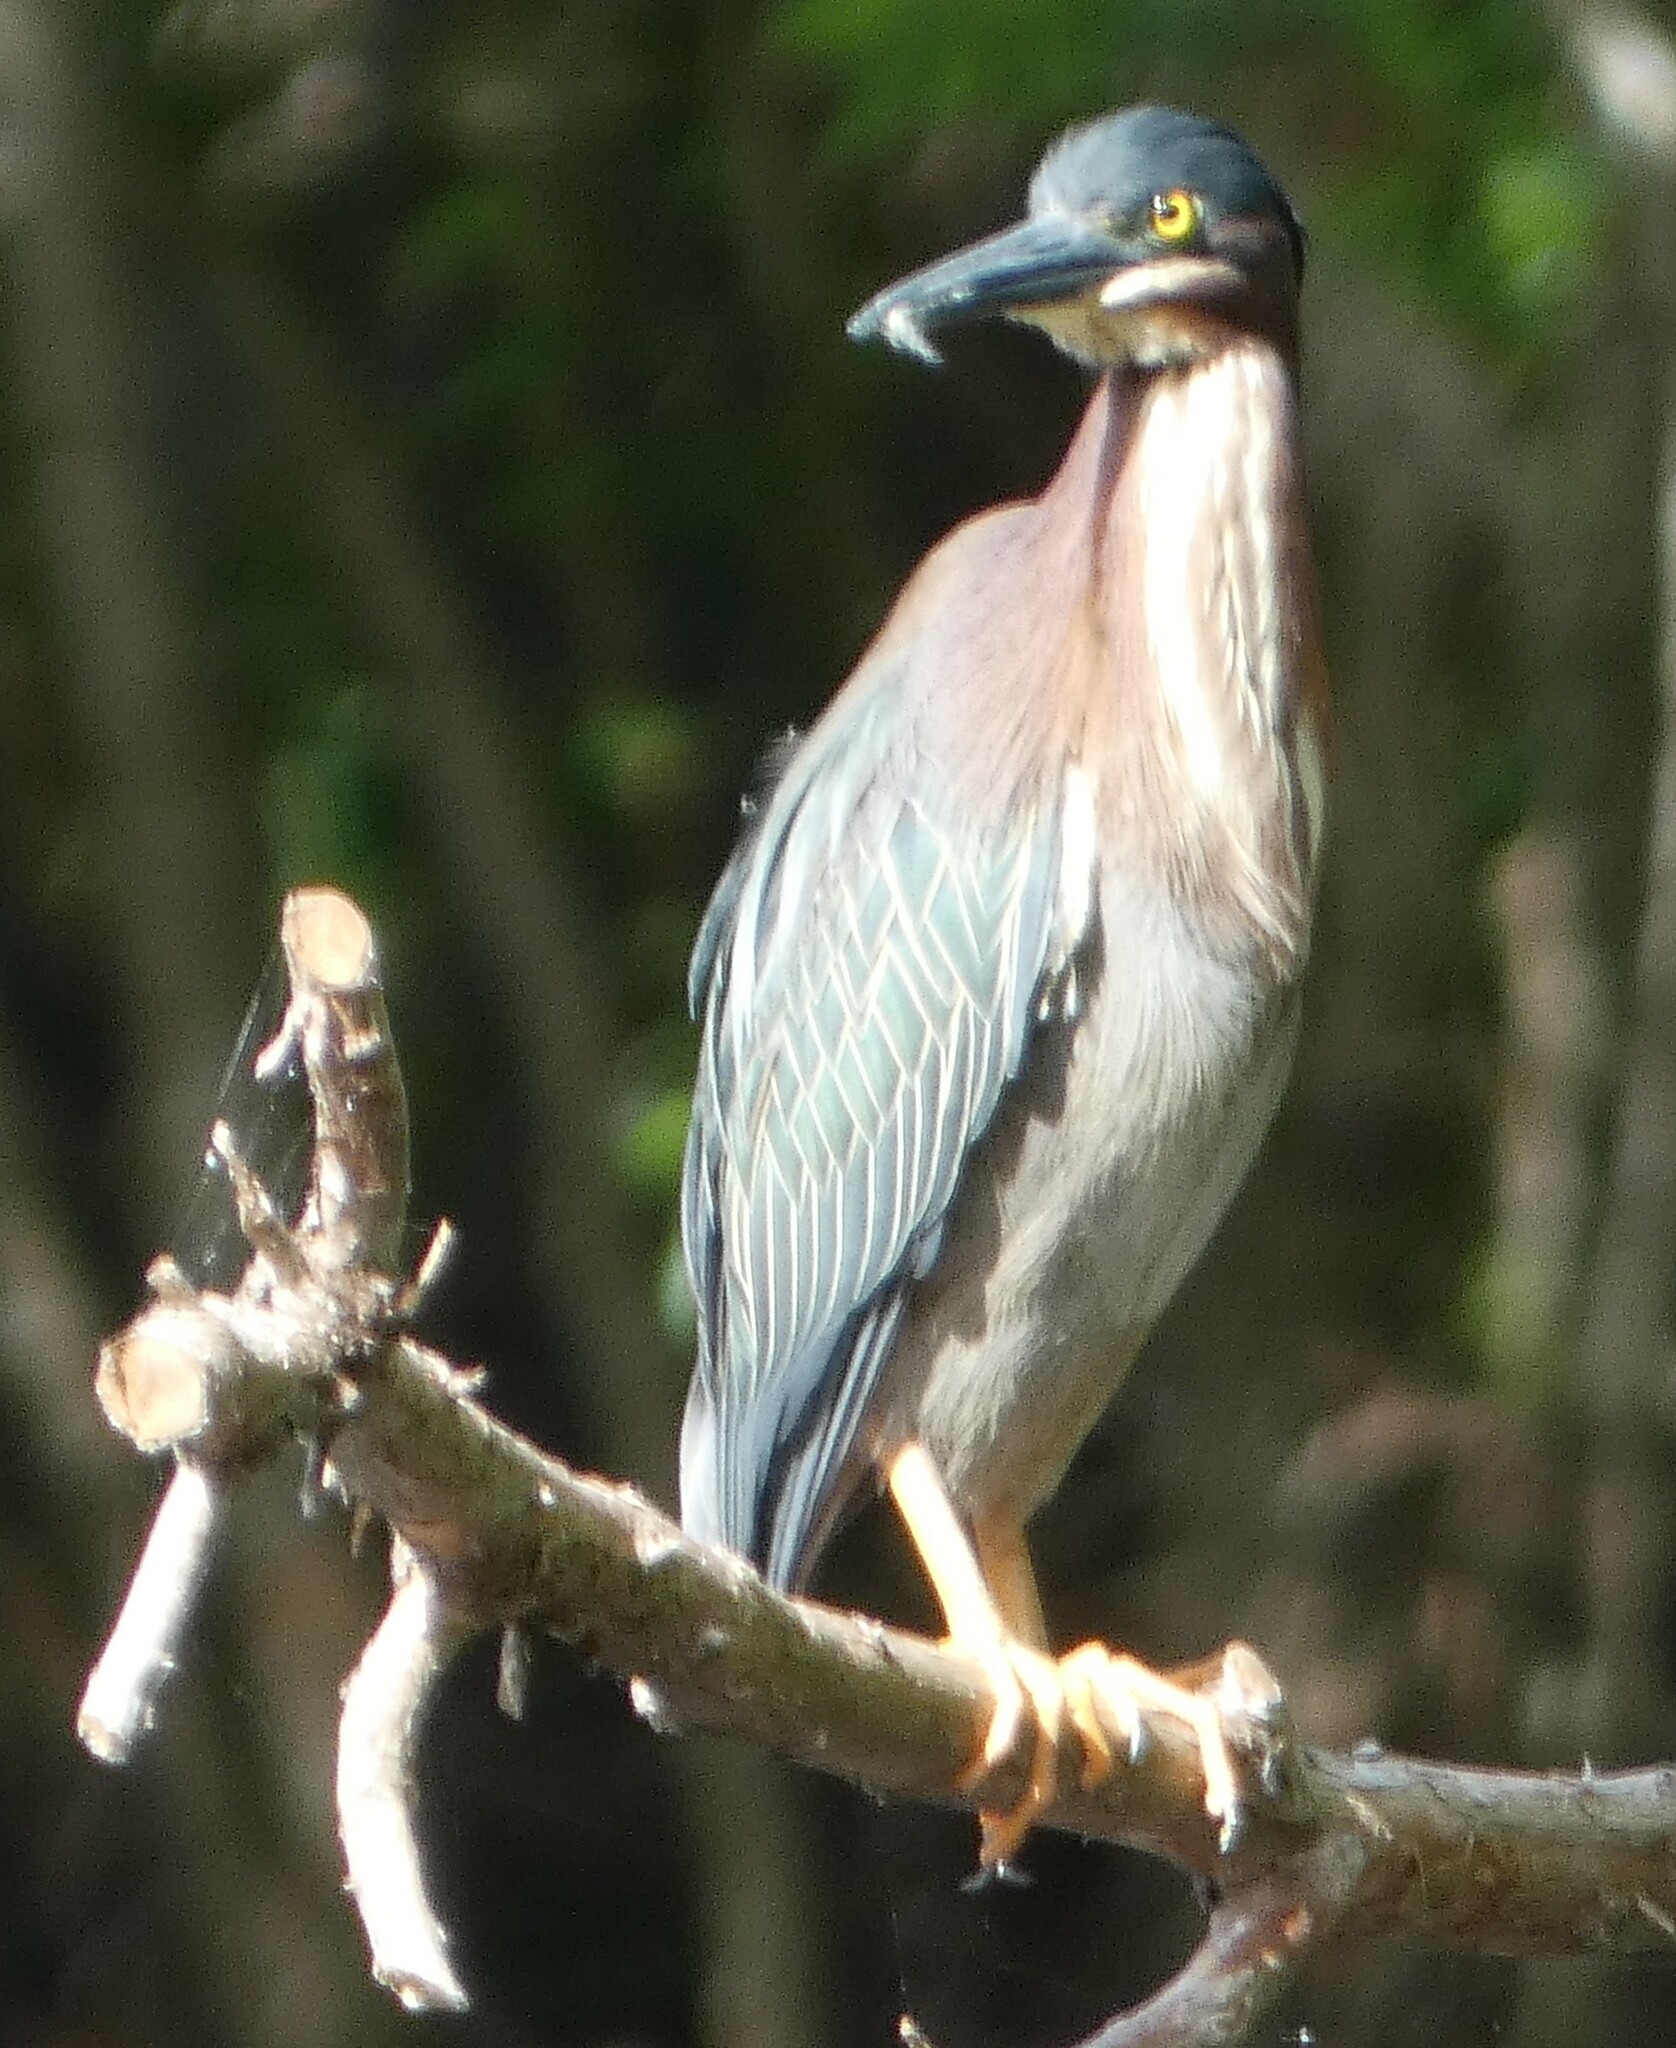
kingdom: Animalia
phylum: Chordata
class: Aves
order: Pelecaniformes
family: Ardeidae
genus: Butorides
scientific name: Butorides virescens
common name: Green heron
